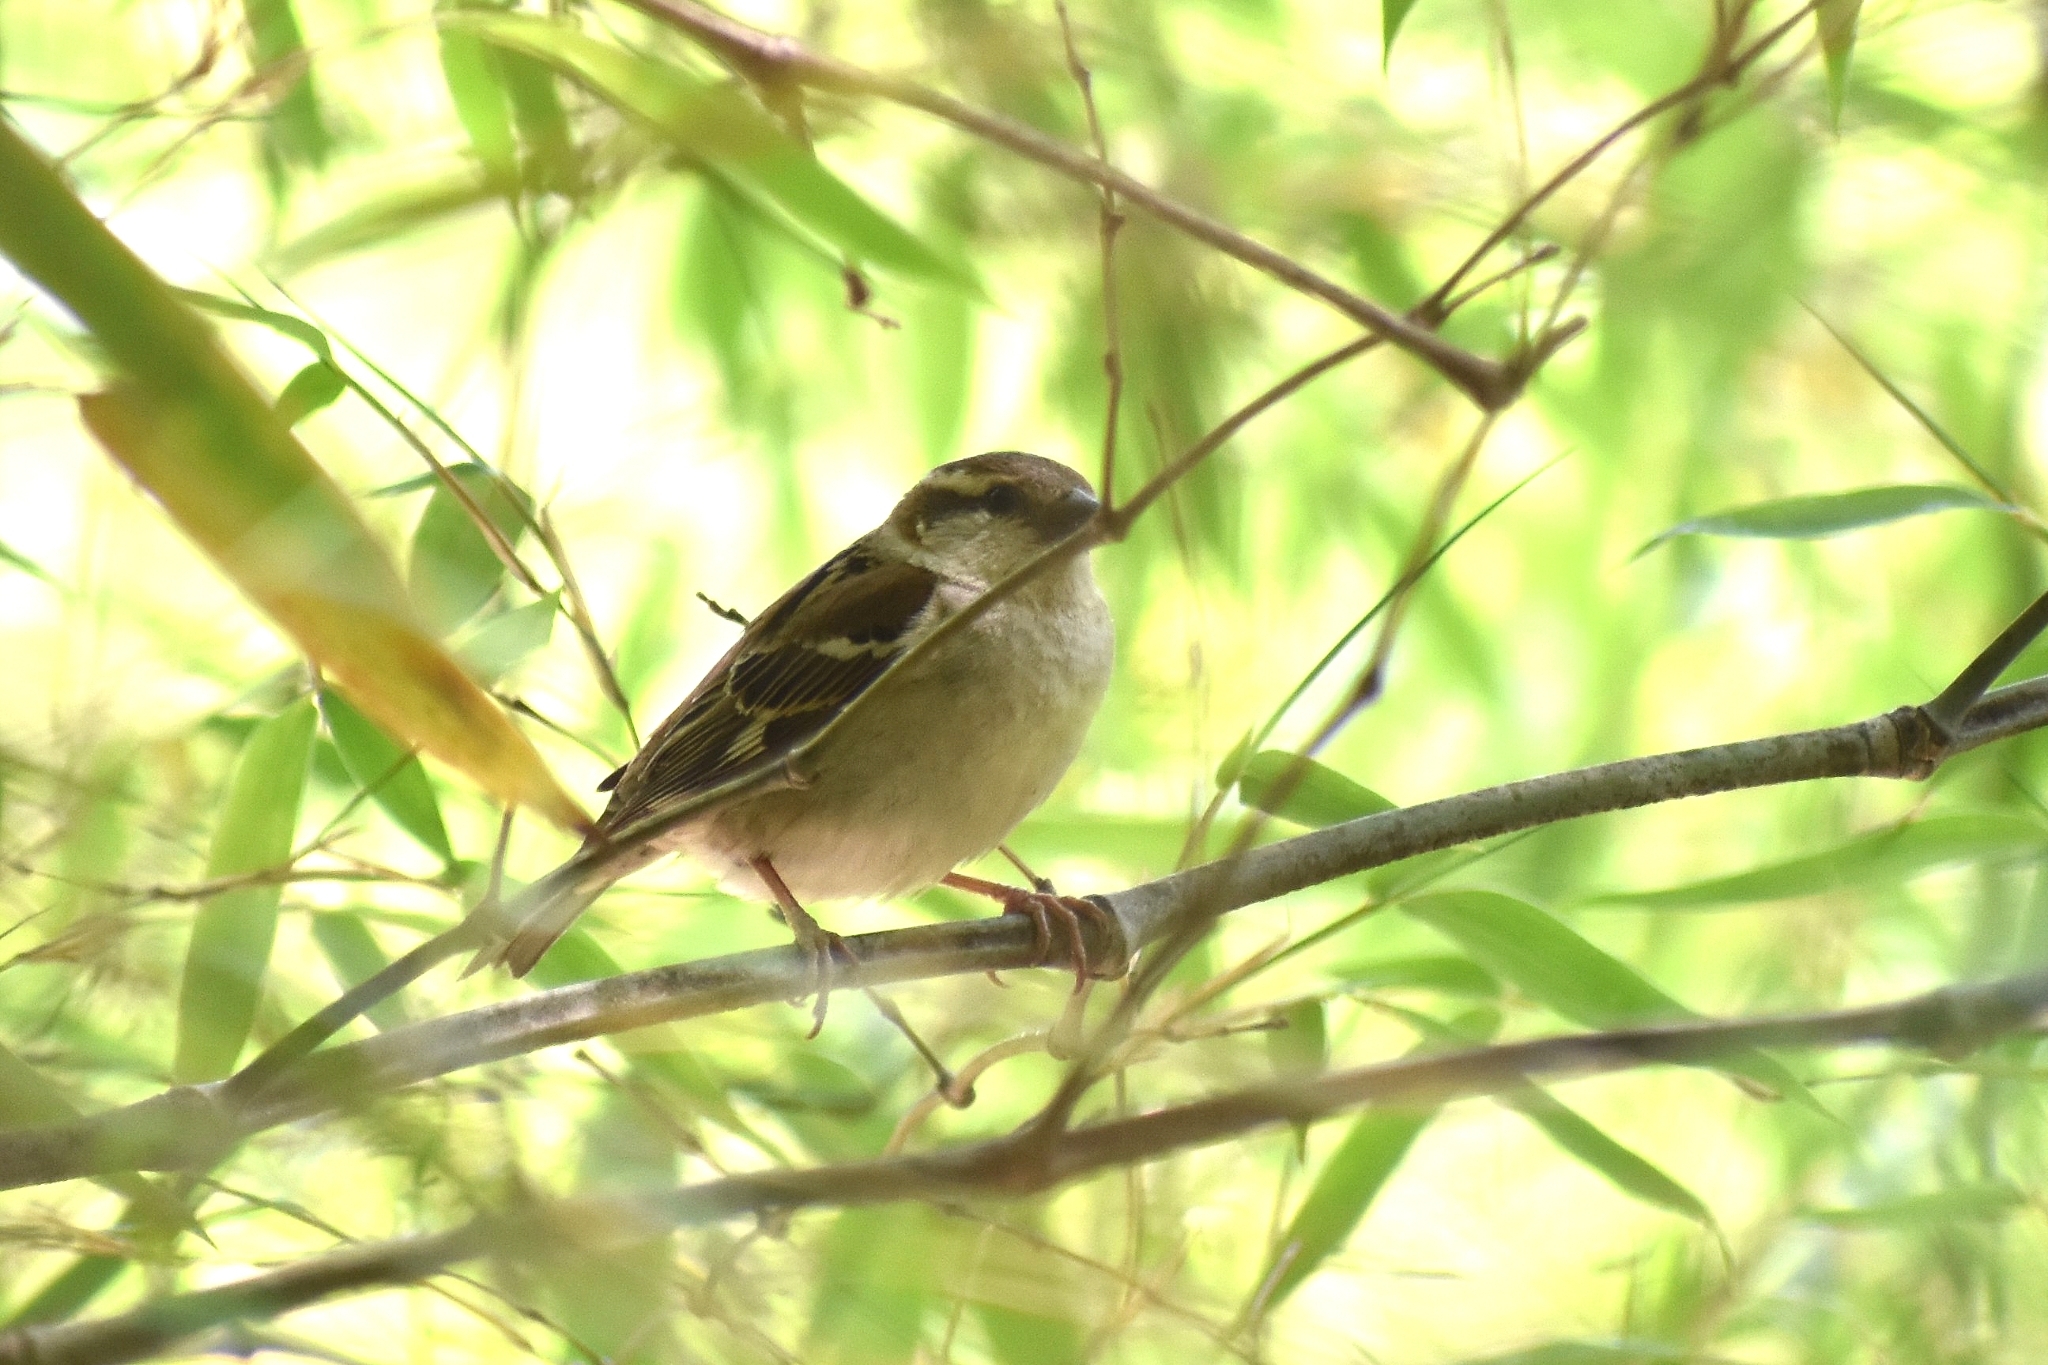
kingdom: Animalia
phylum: Chordata
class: Aves
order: Passeriformes
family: Passeridae
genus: Passer
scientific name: Passer cinnamomeus
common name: Russet sparrow
